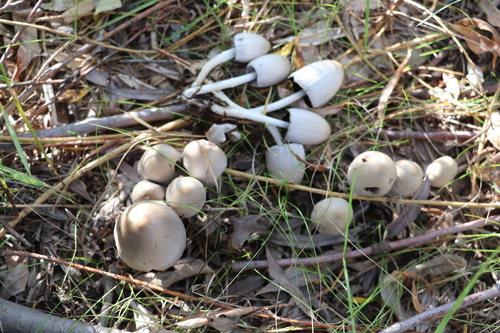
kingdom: Fungi
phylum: Basidiomycota
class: Agaricomycetes
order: Agaricales
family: Psathyrellaceae
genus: Coprinopsis
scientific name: Coprinopsis
